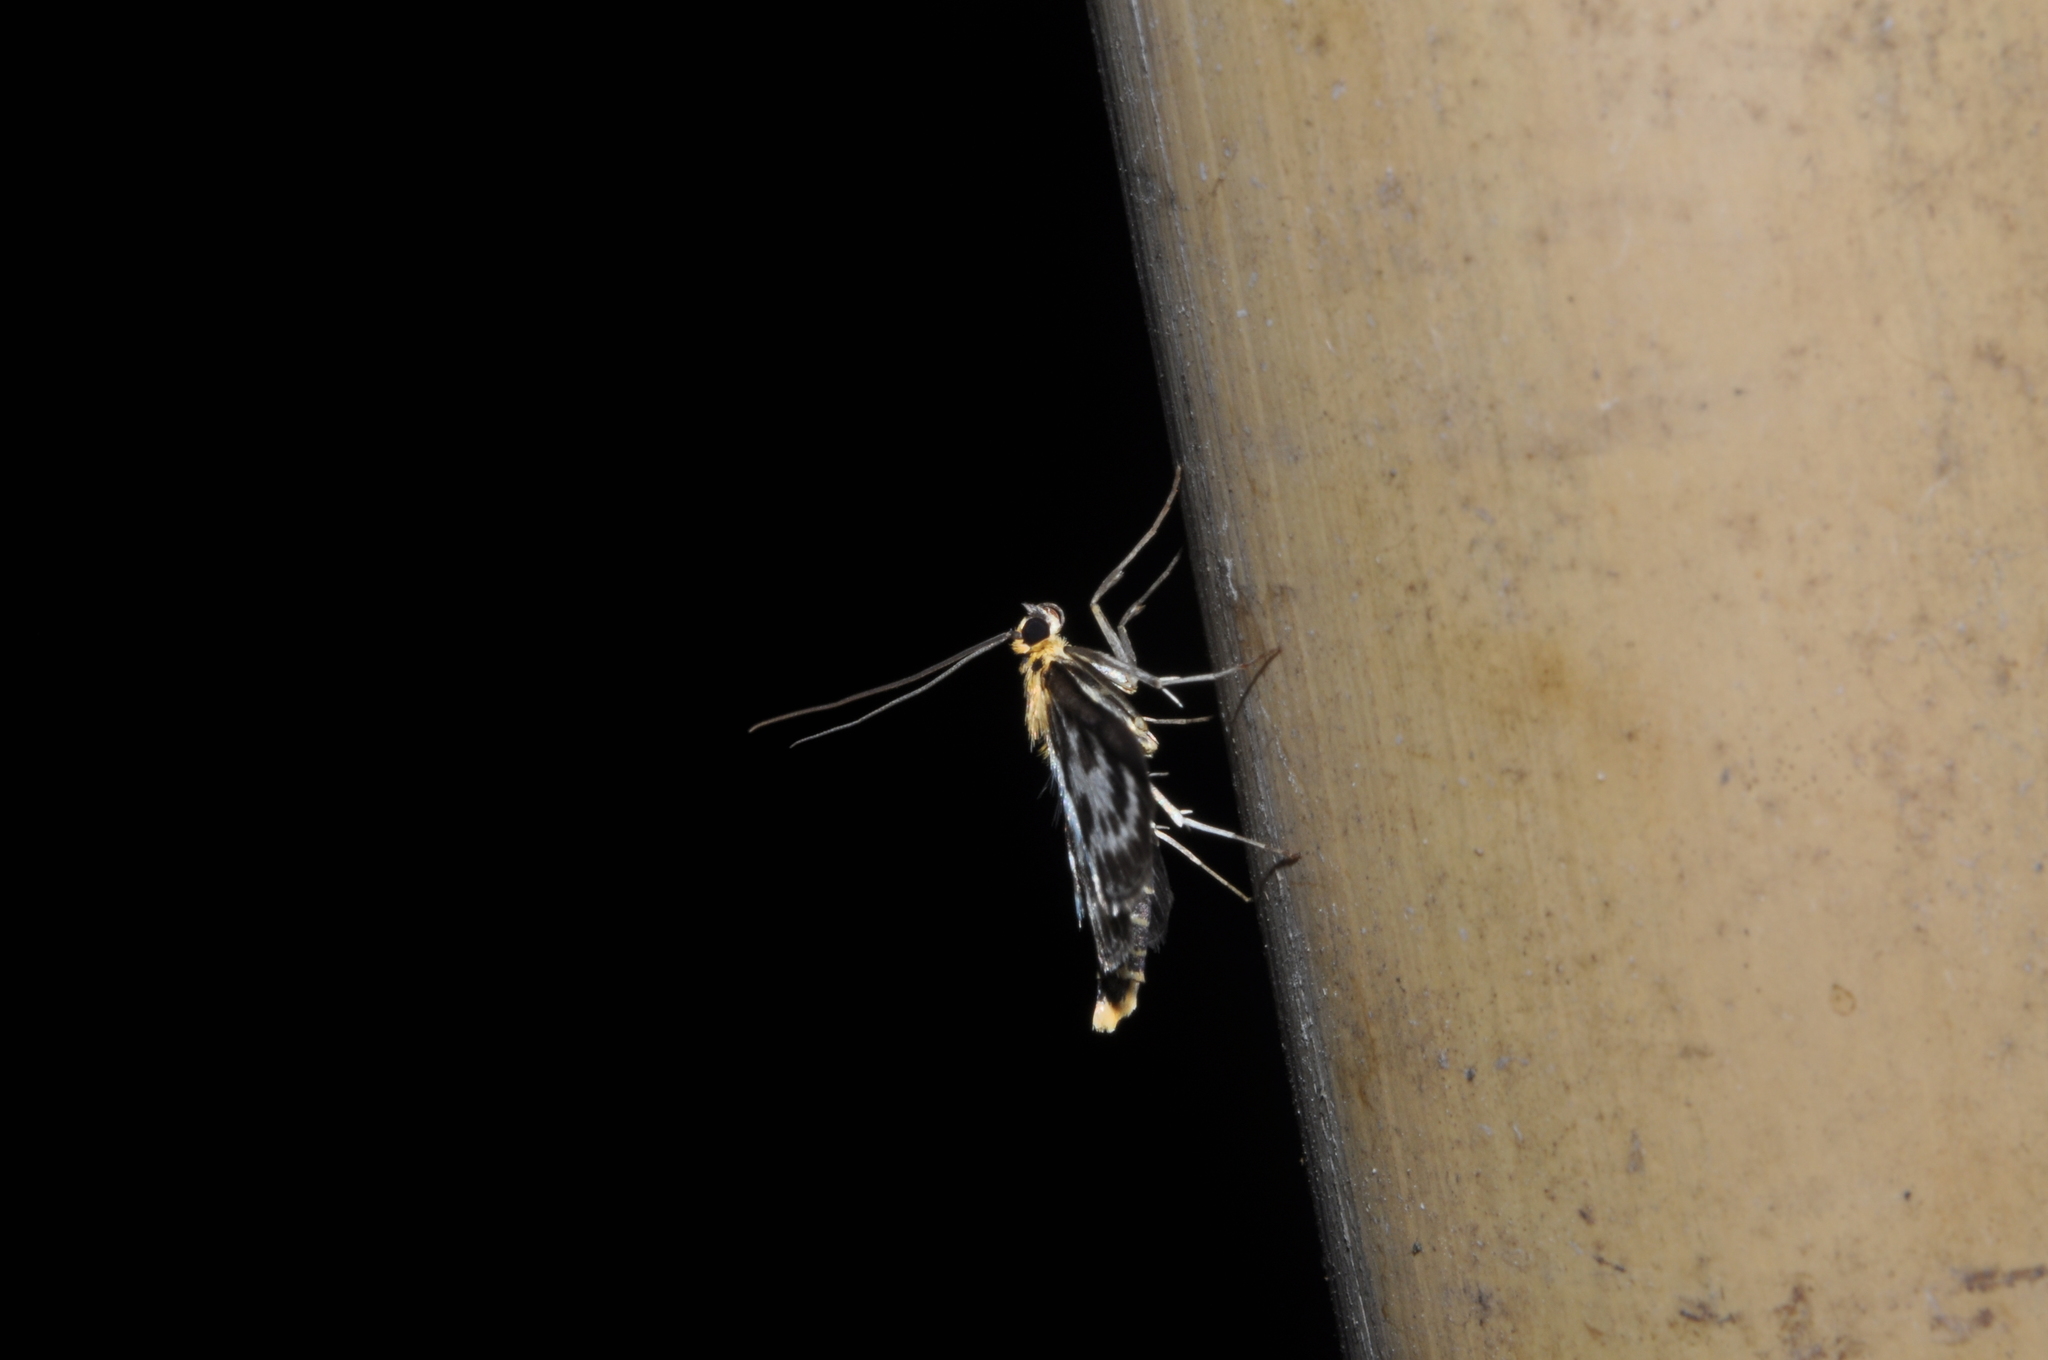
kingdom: Animalia
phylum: Arthropoda
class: Insecta
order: Lepidoptera
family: Crambidae
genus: Anania
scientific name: Anania hortulata
